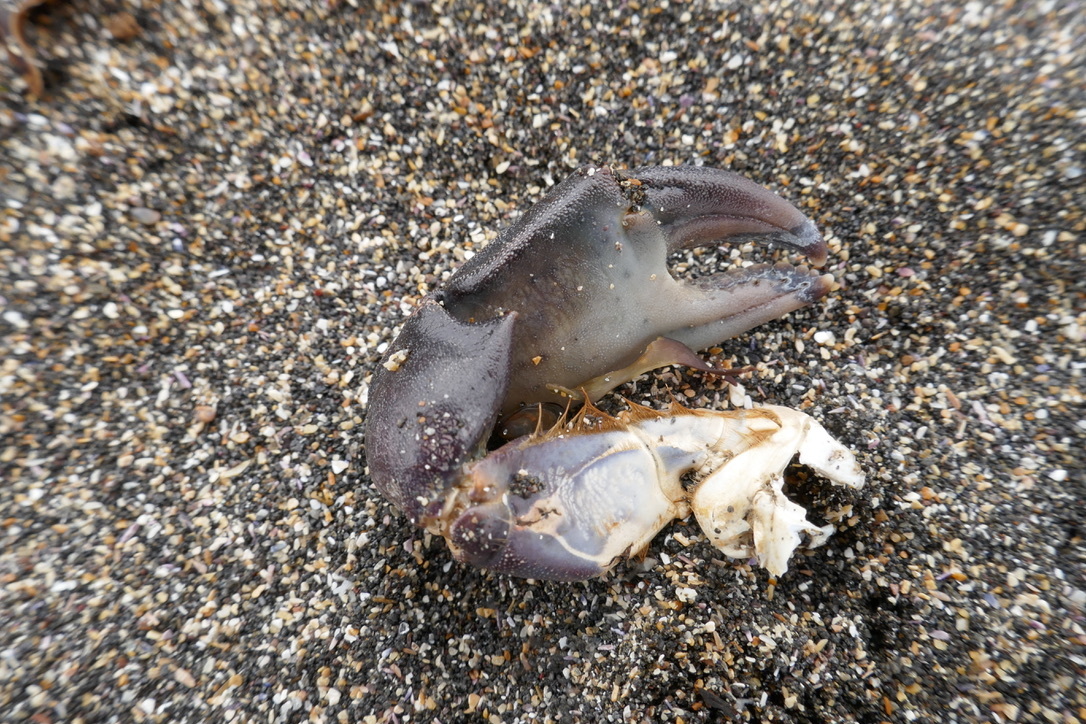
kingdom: Animalia
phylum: Arthropoda
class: Malacostraca
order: Decapoda
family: Carcinidae
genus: Carcinus
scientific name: Carcinus maenas
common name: European green crab
